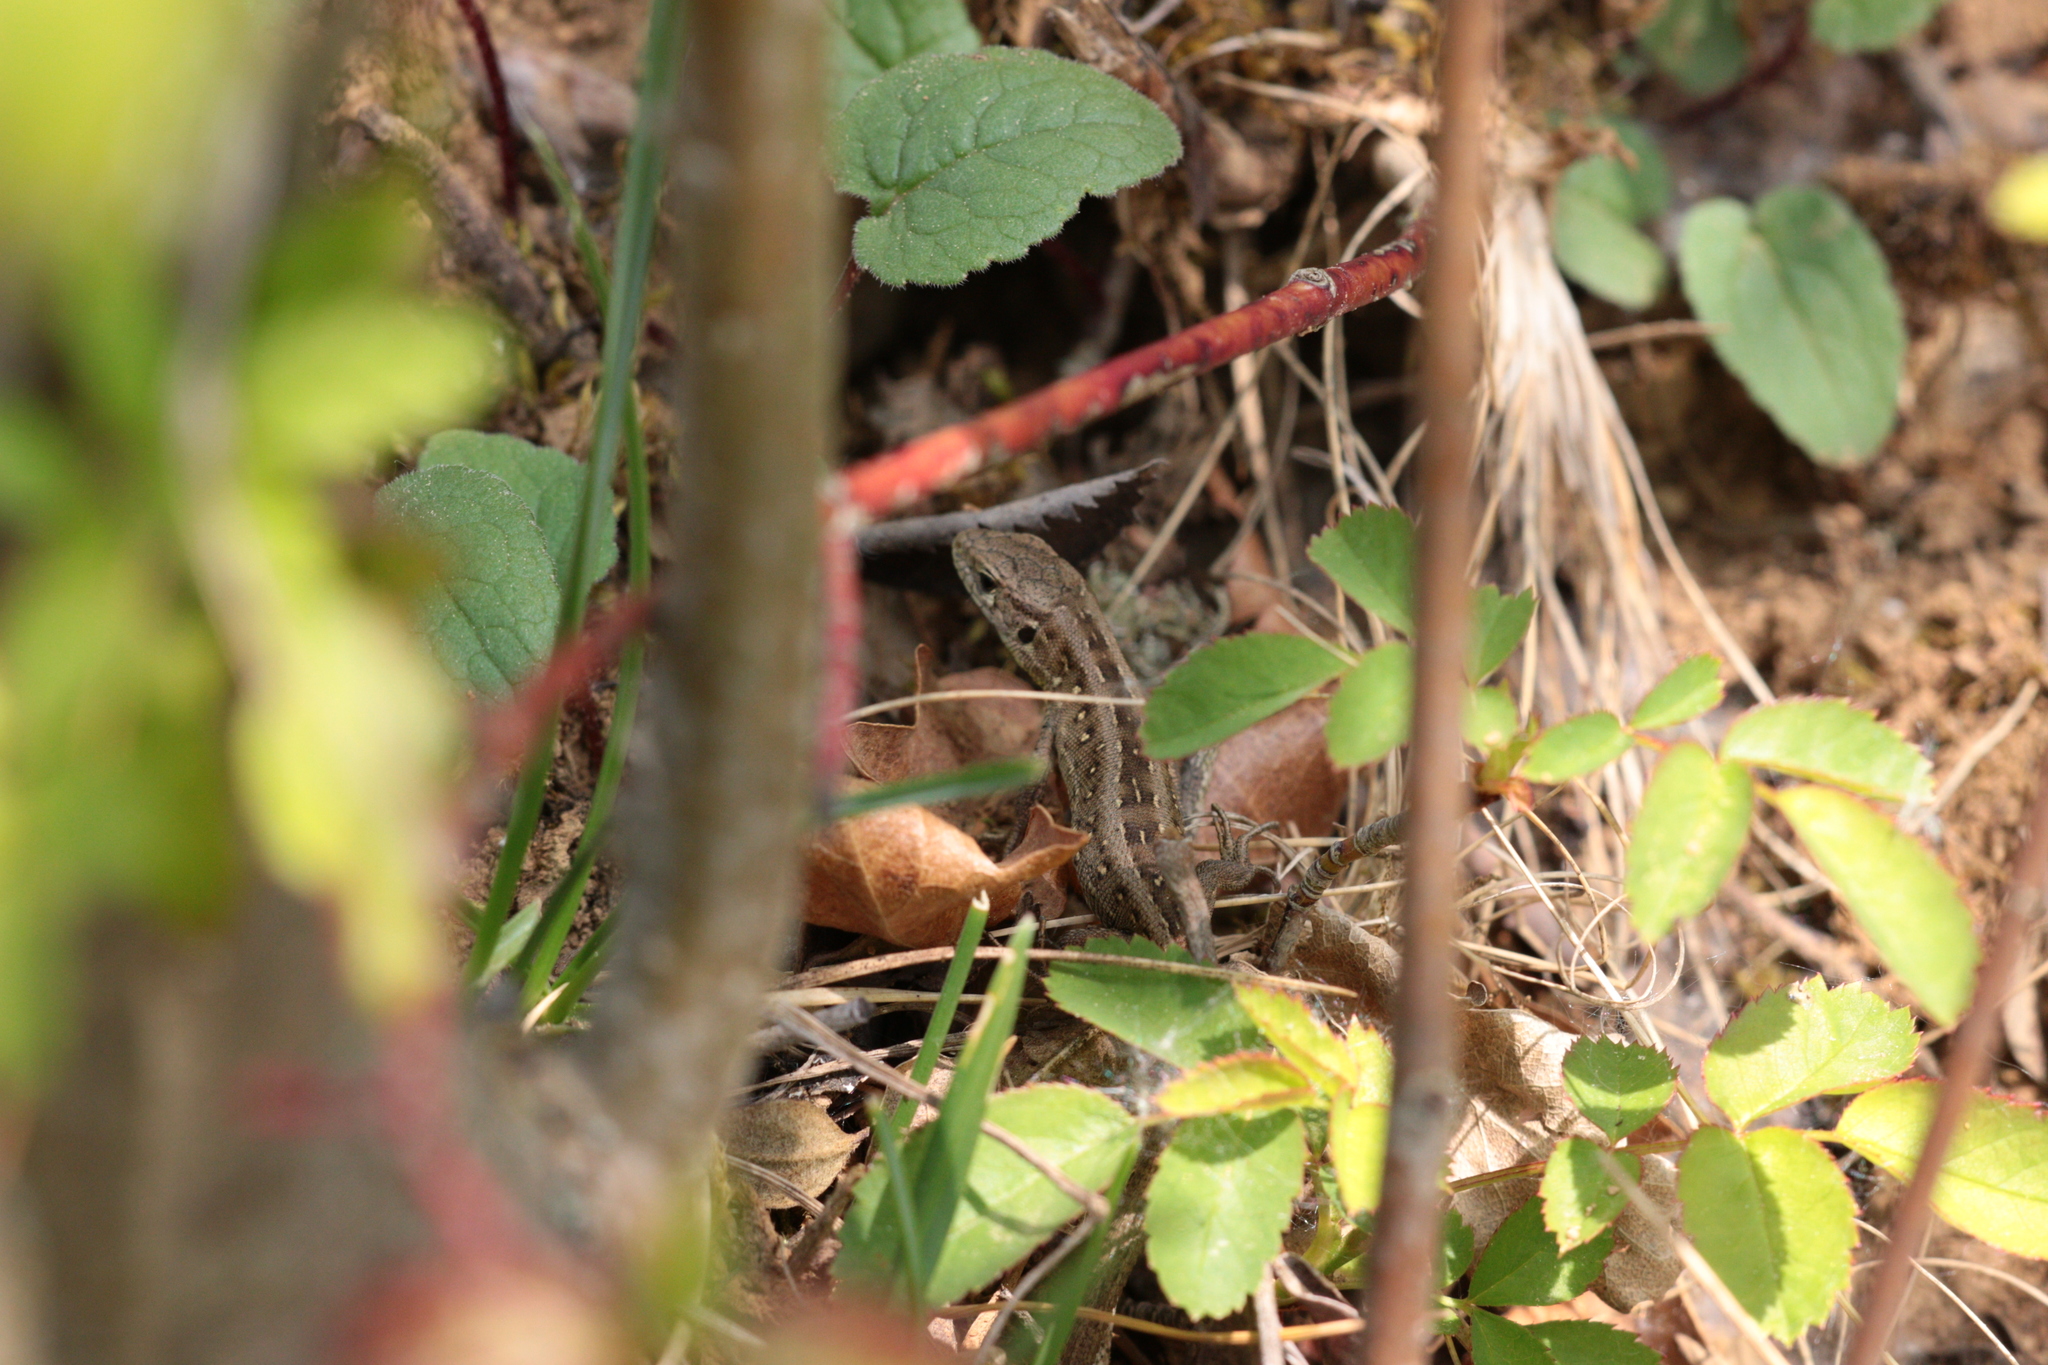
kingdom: Animalia
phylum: Chordata
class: Squamata
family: Lacertidae
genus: Lacerta
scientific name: Lacerta agilis
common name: Sand lizard
